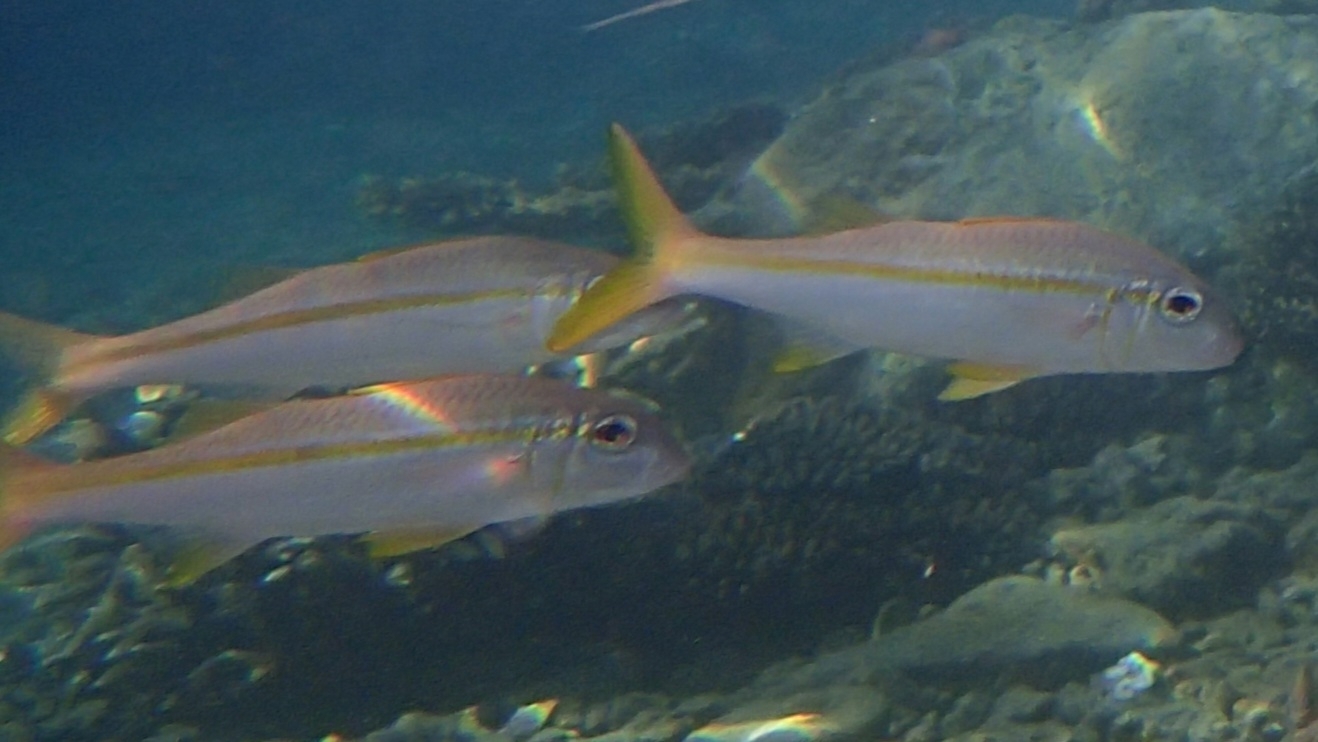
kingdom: Animalia
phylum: Chordata
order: Perciformes
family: Mullidae
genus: Mulloidichthys
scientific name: Mulloidichthys vanicolensis
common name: Yellowfin goatfish
